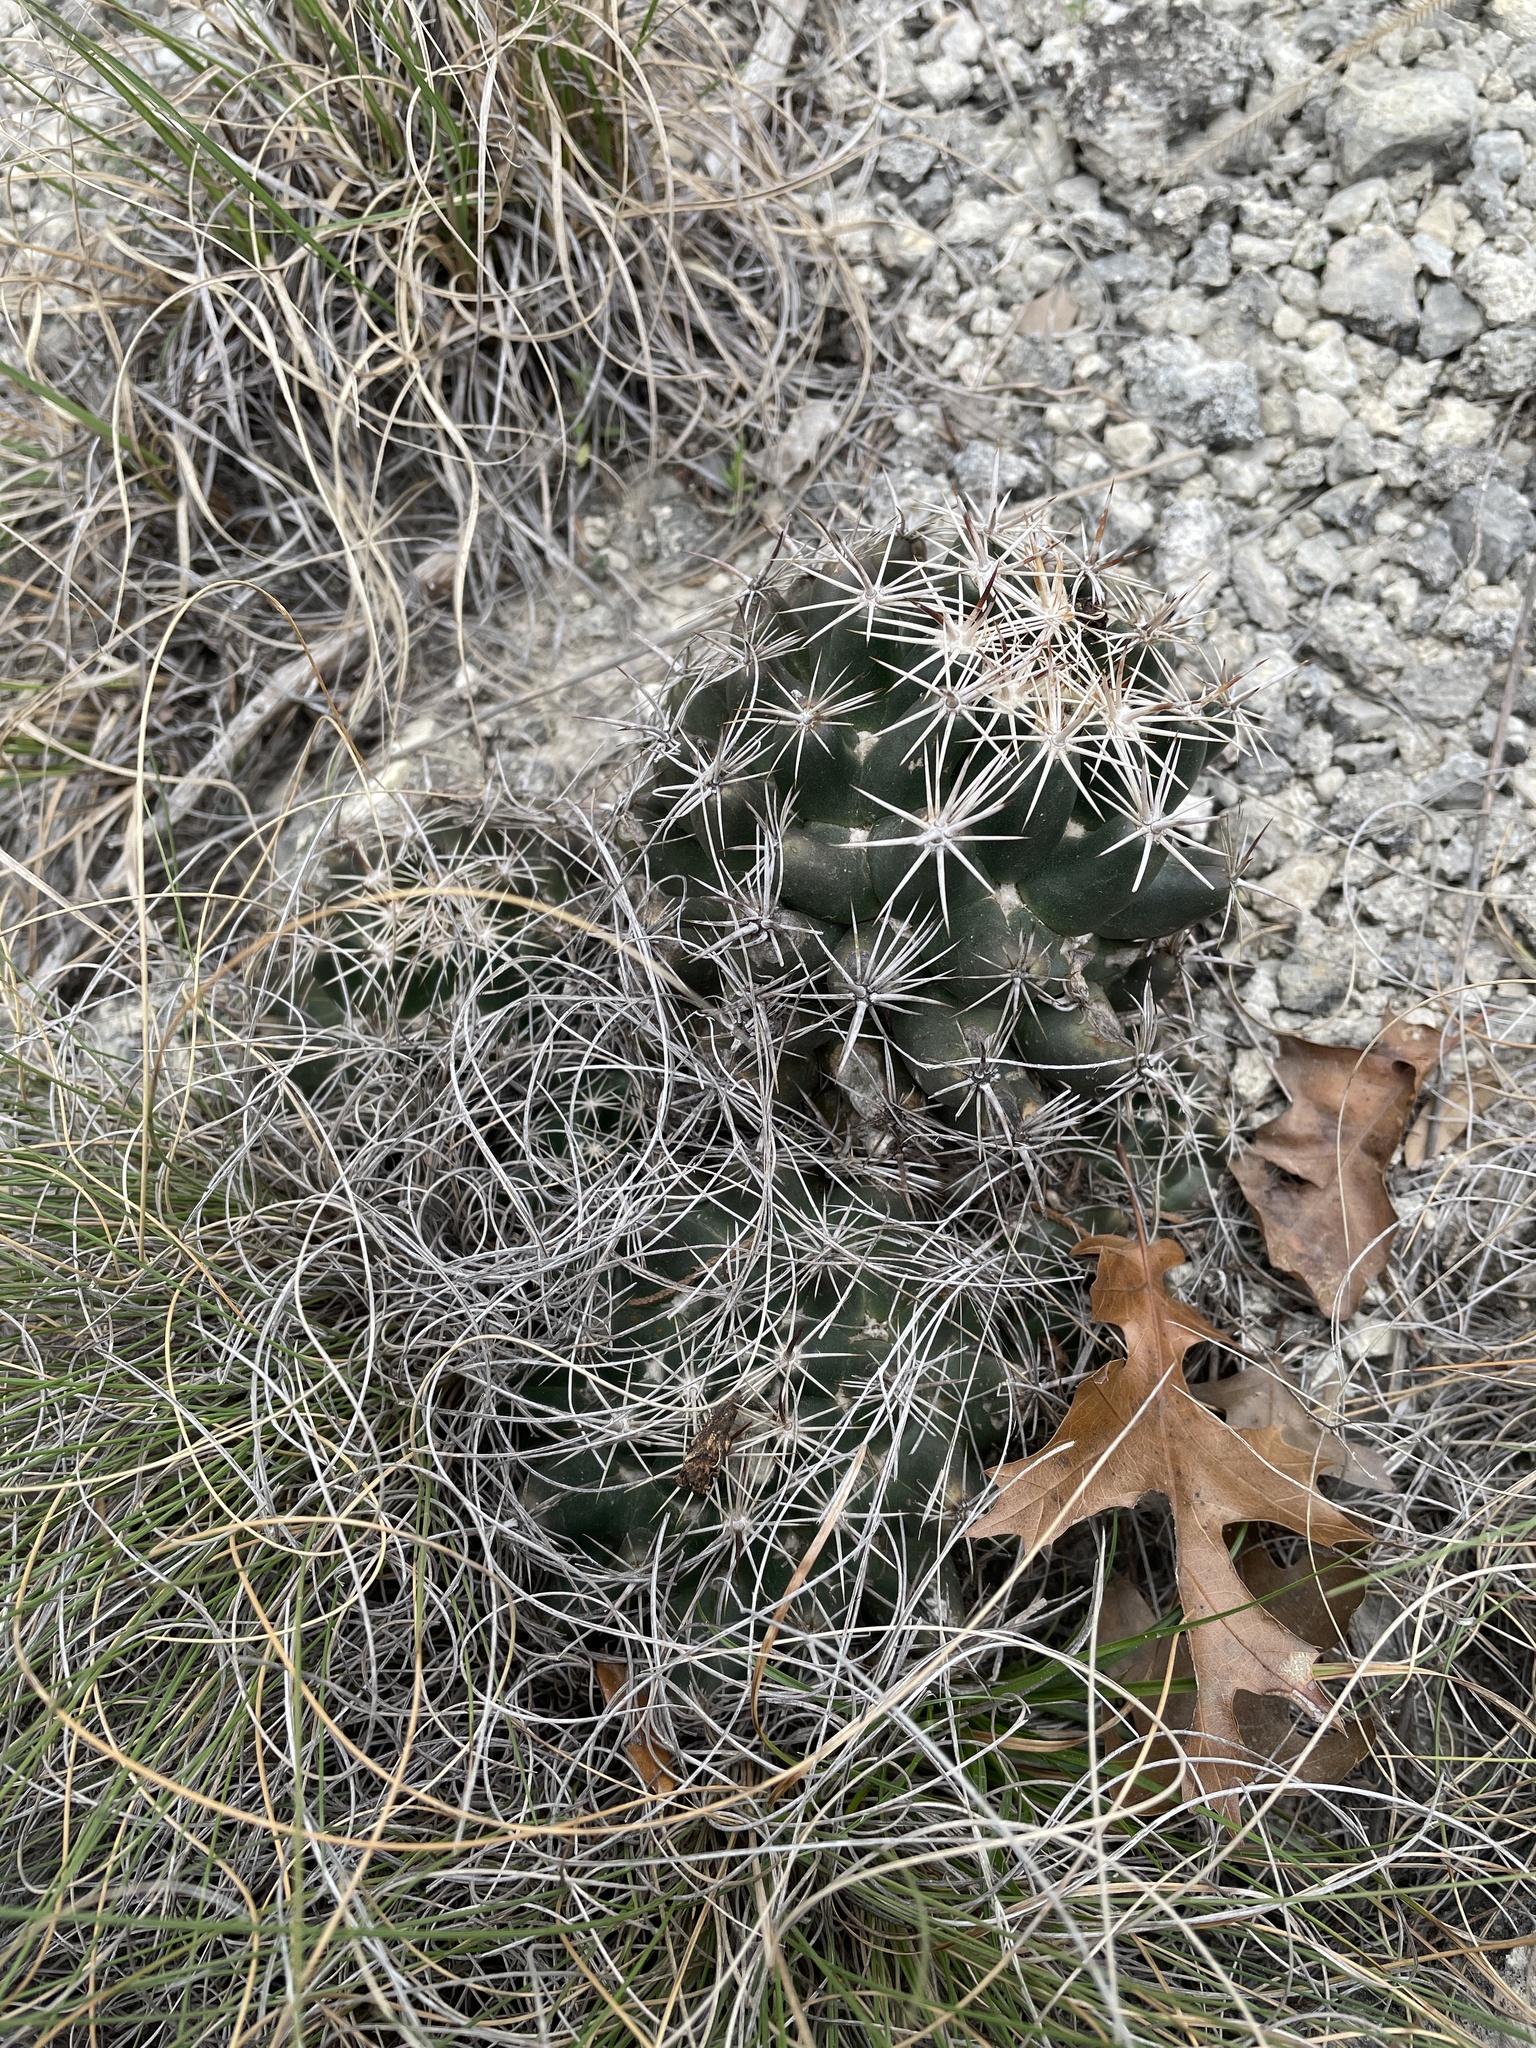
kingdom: Plantae
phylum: Tracheophyta
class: Magnoliopsida
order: Caryophyllales
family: Cactaceae
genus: Coryphantha
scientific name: Coryphantha sulcata
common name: Finger cactus
